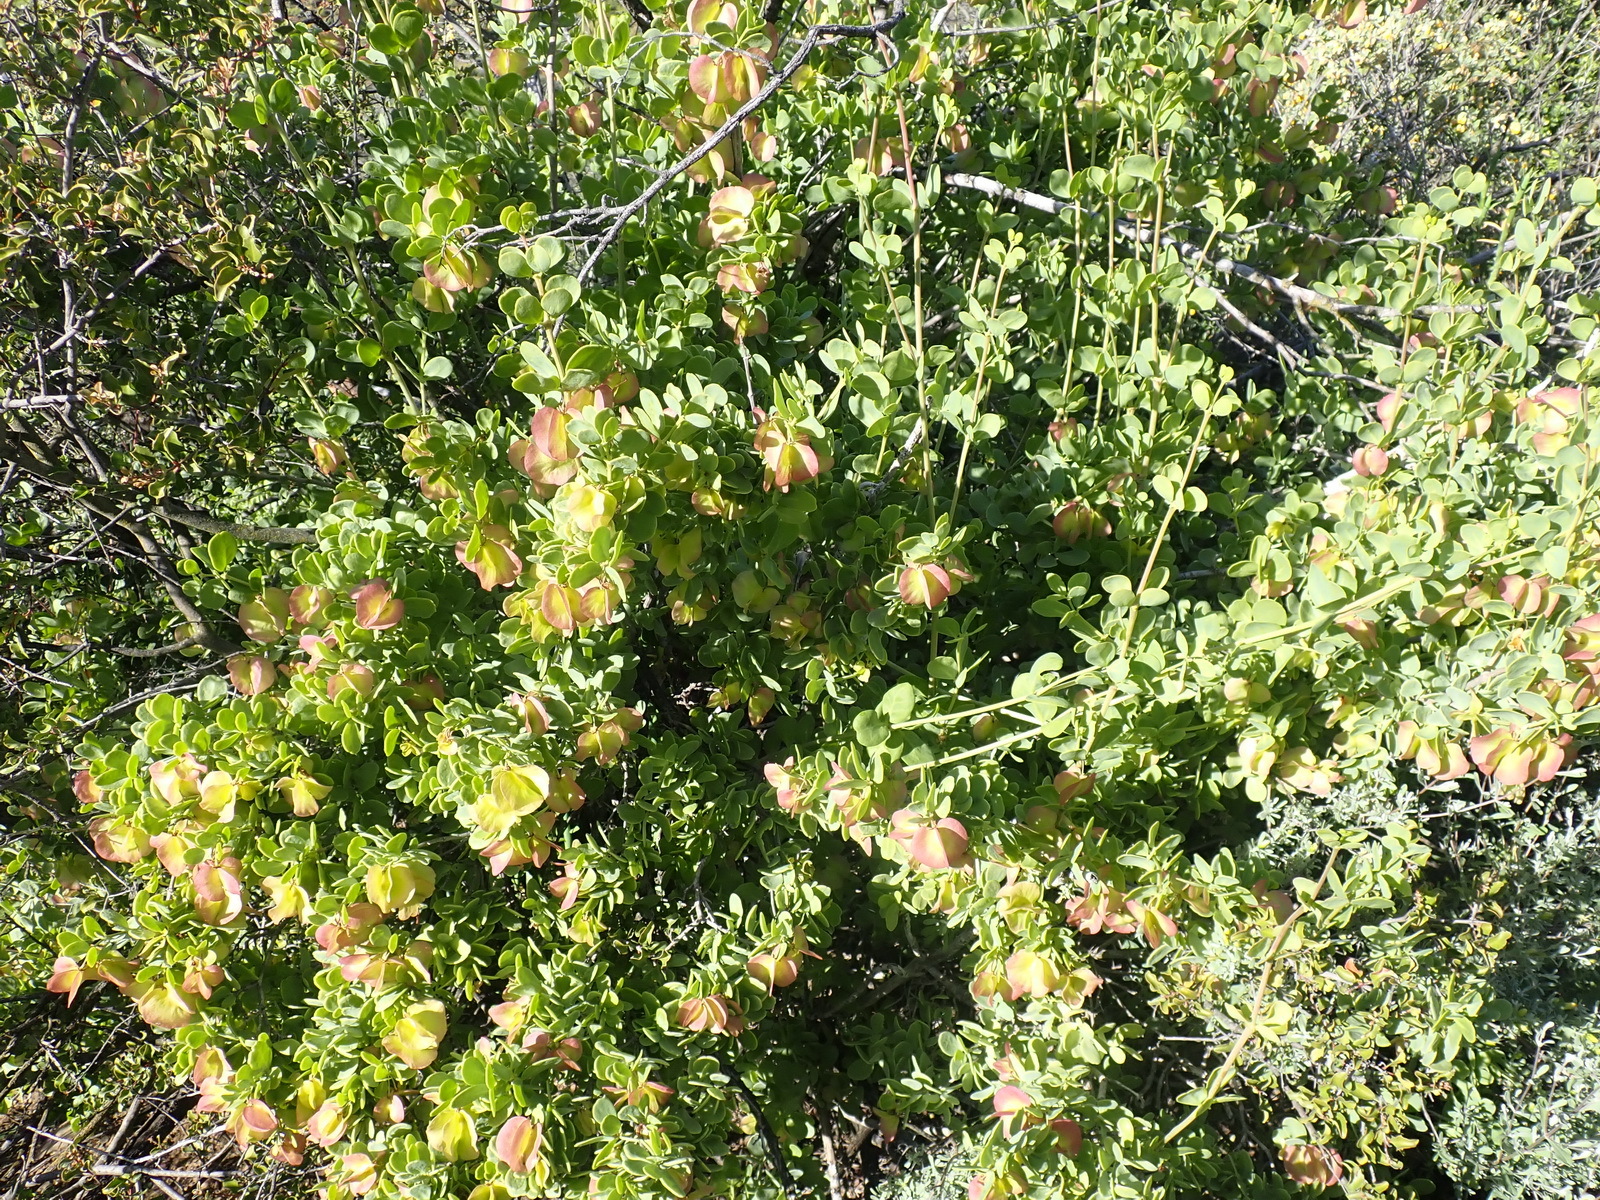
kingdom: Plantae
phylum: Tracheophyta
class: Magnoliopsida
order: Zygophyllales
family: Zygophyllaceae
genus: Roepera
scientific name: Roepera morgsana
